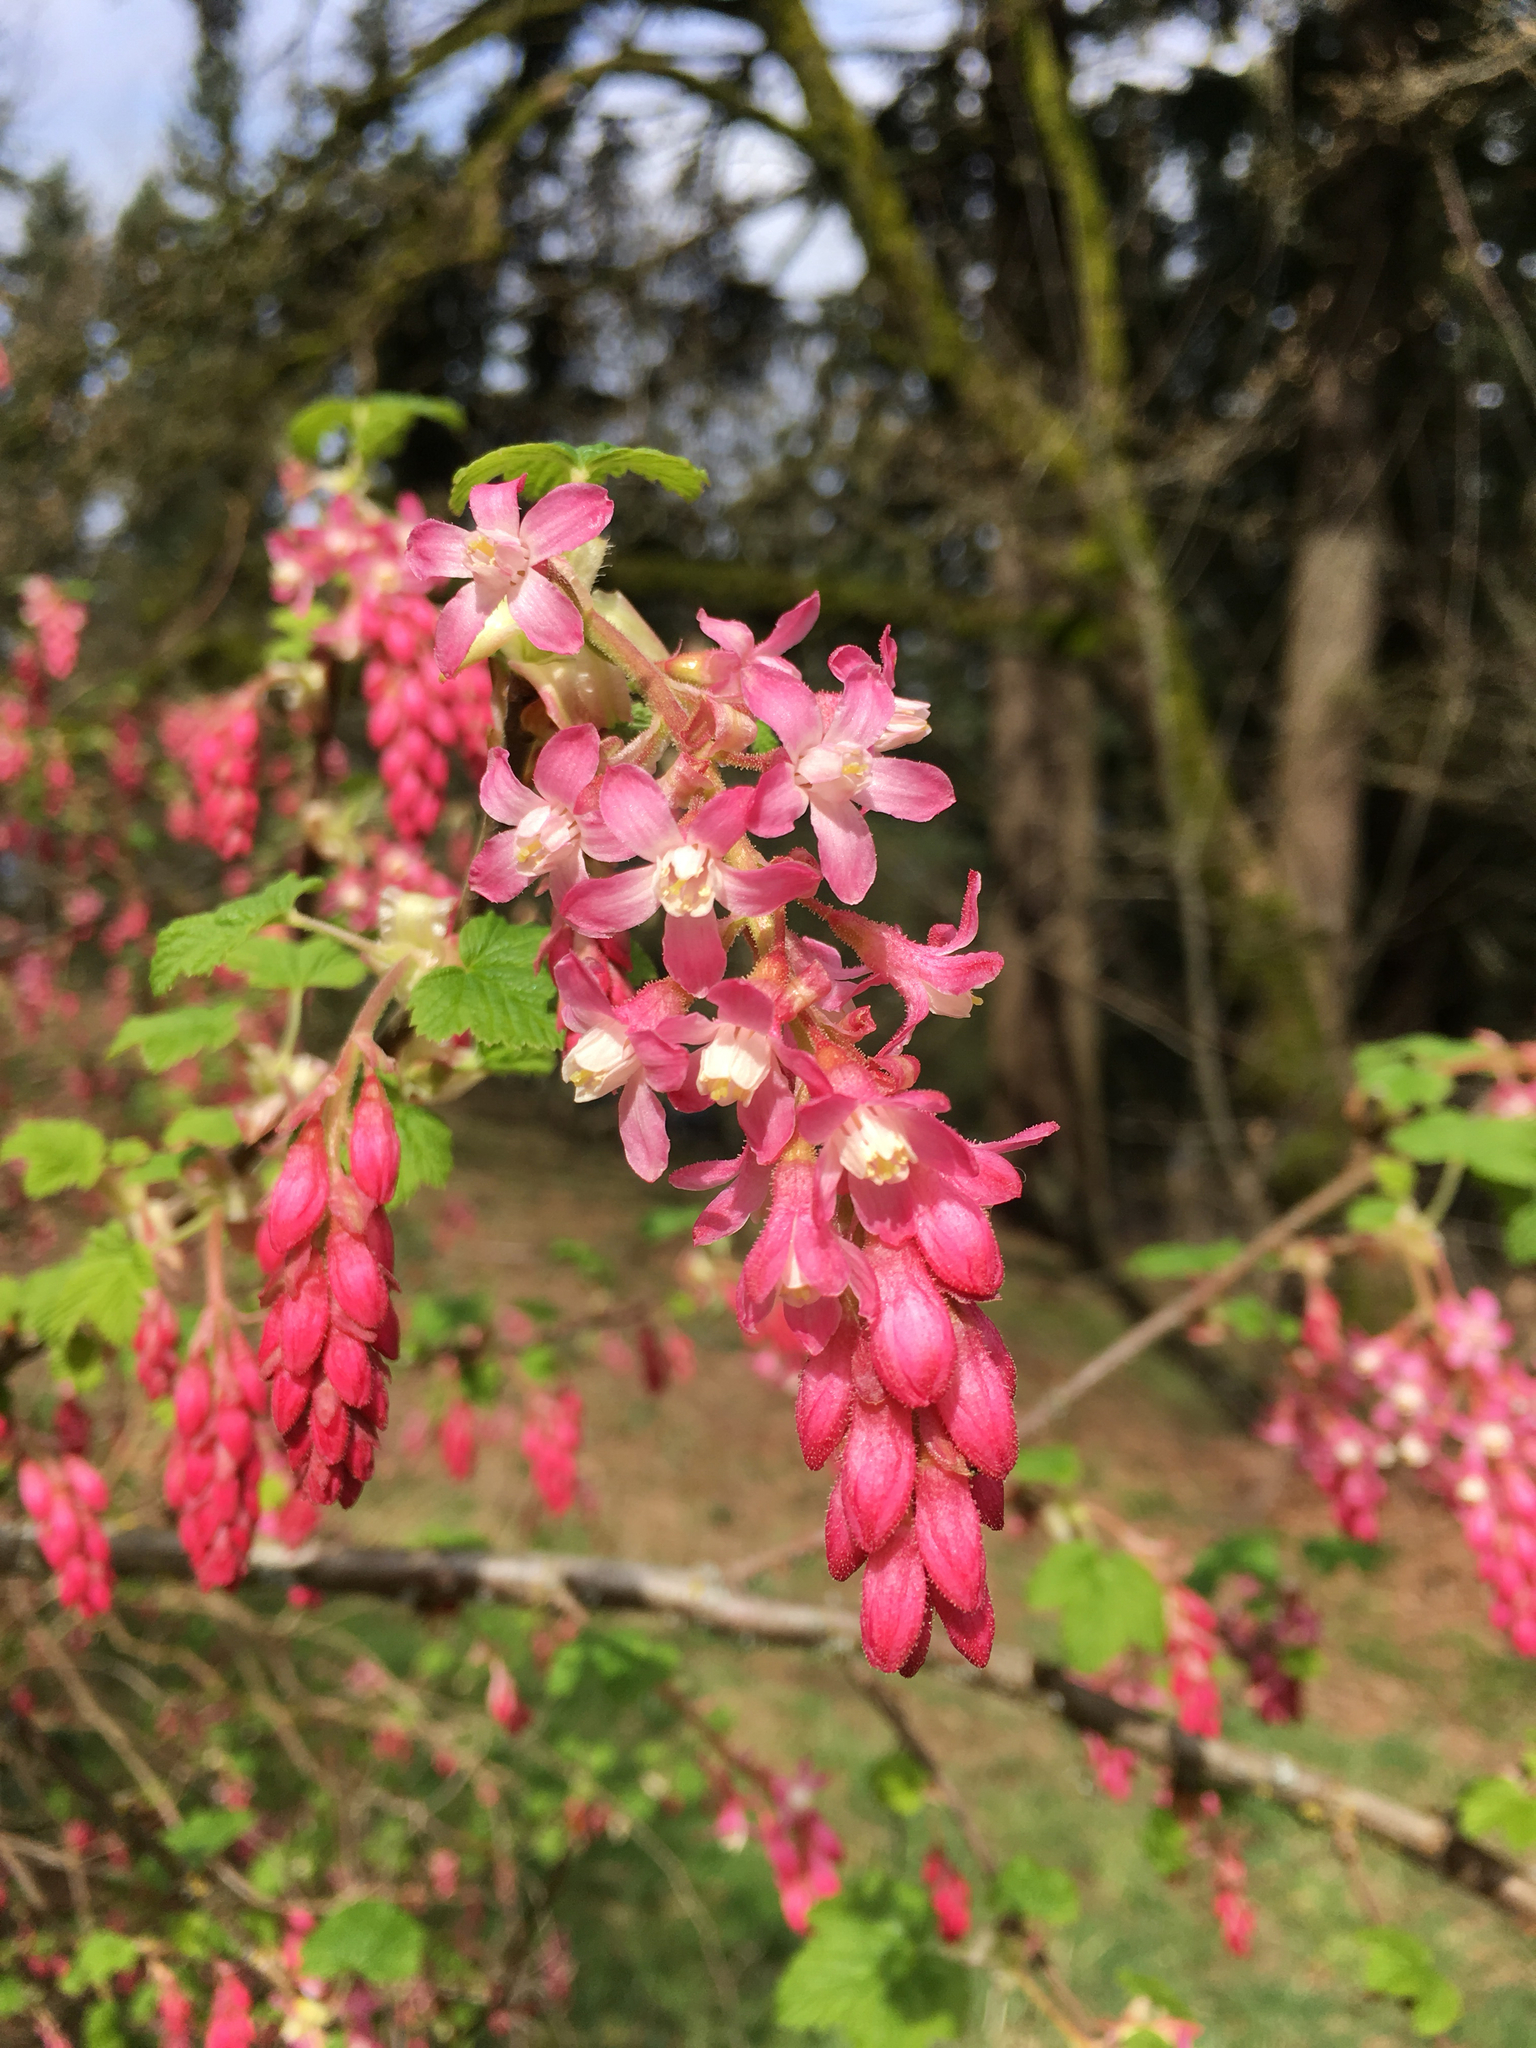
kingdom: Plantae
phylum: Tracheophyta
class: Magnoliopsida
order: Saxifragales
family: Grossulariaceae
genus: Ribes
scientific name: Ribes sanguineum
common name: Flowering currant
